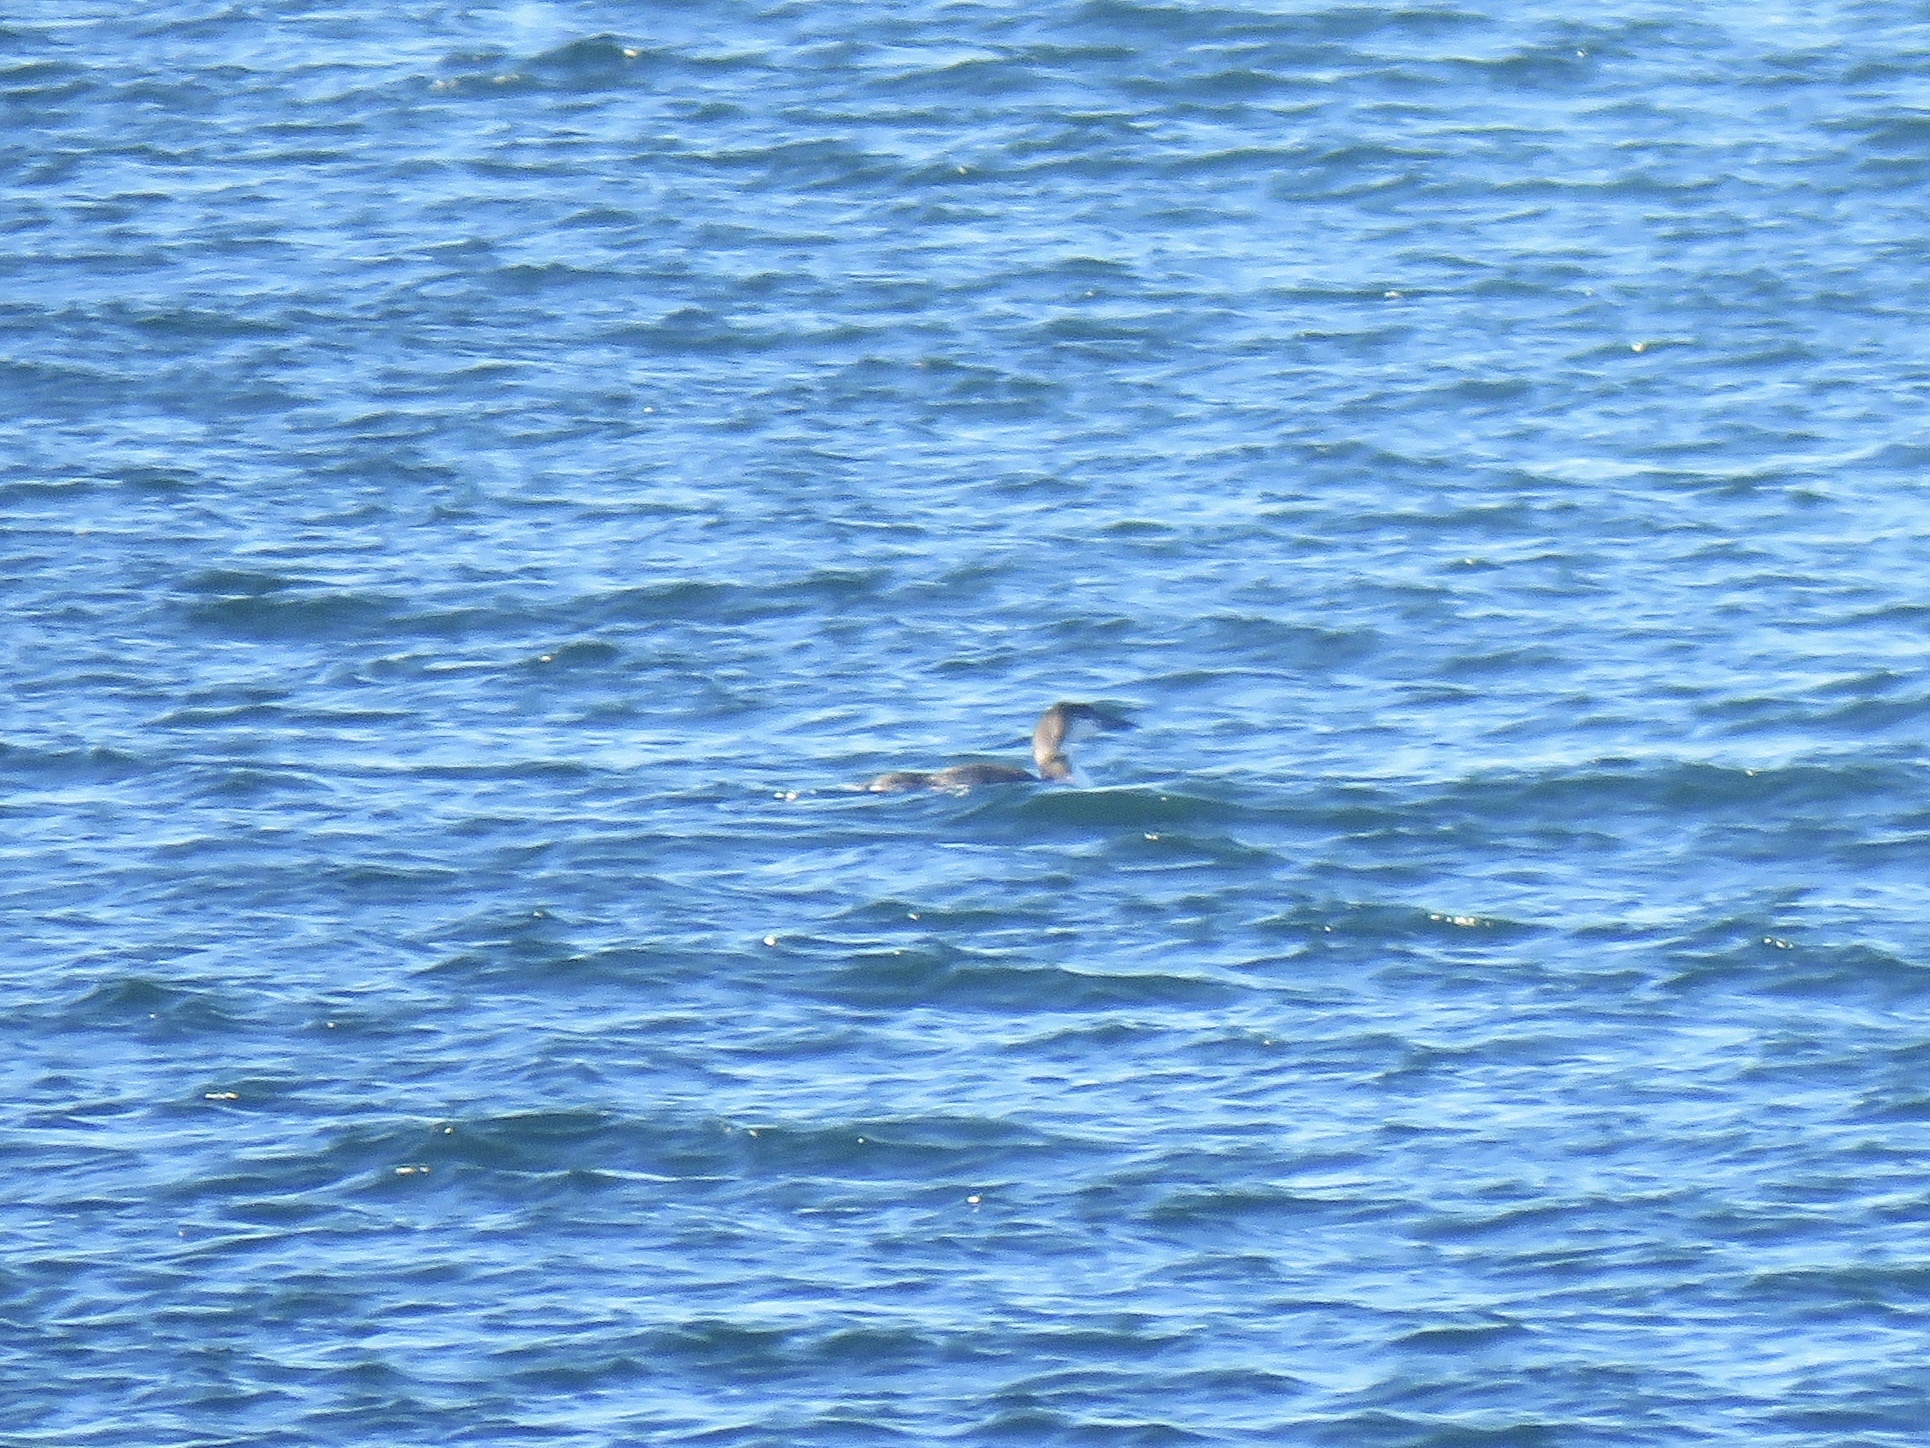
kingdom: Animalia
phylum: Chordata
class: Aves
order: Gaviiformes
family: Gaviidae
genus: Gavia
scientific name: Gavia immer
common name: Common loon
